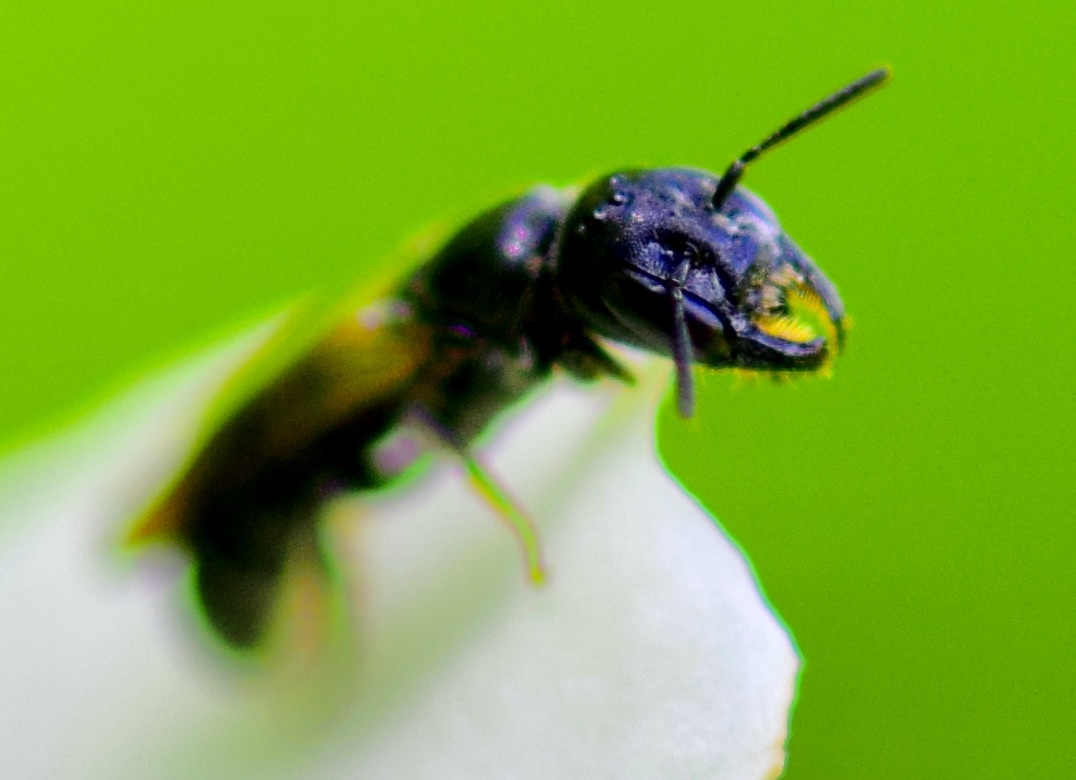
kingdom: Animalia
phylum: Arthropoda
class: Insecta
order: Hymenoptera
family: Megachilidae
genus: Chelostoma
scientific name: Chelostoma philadelphi
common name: Mock-orange scissor bee
